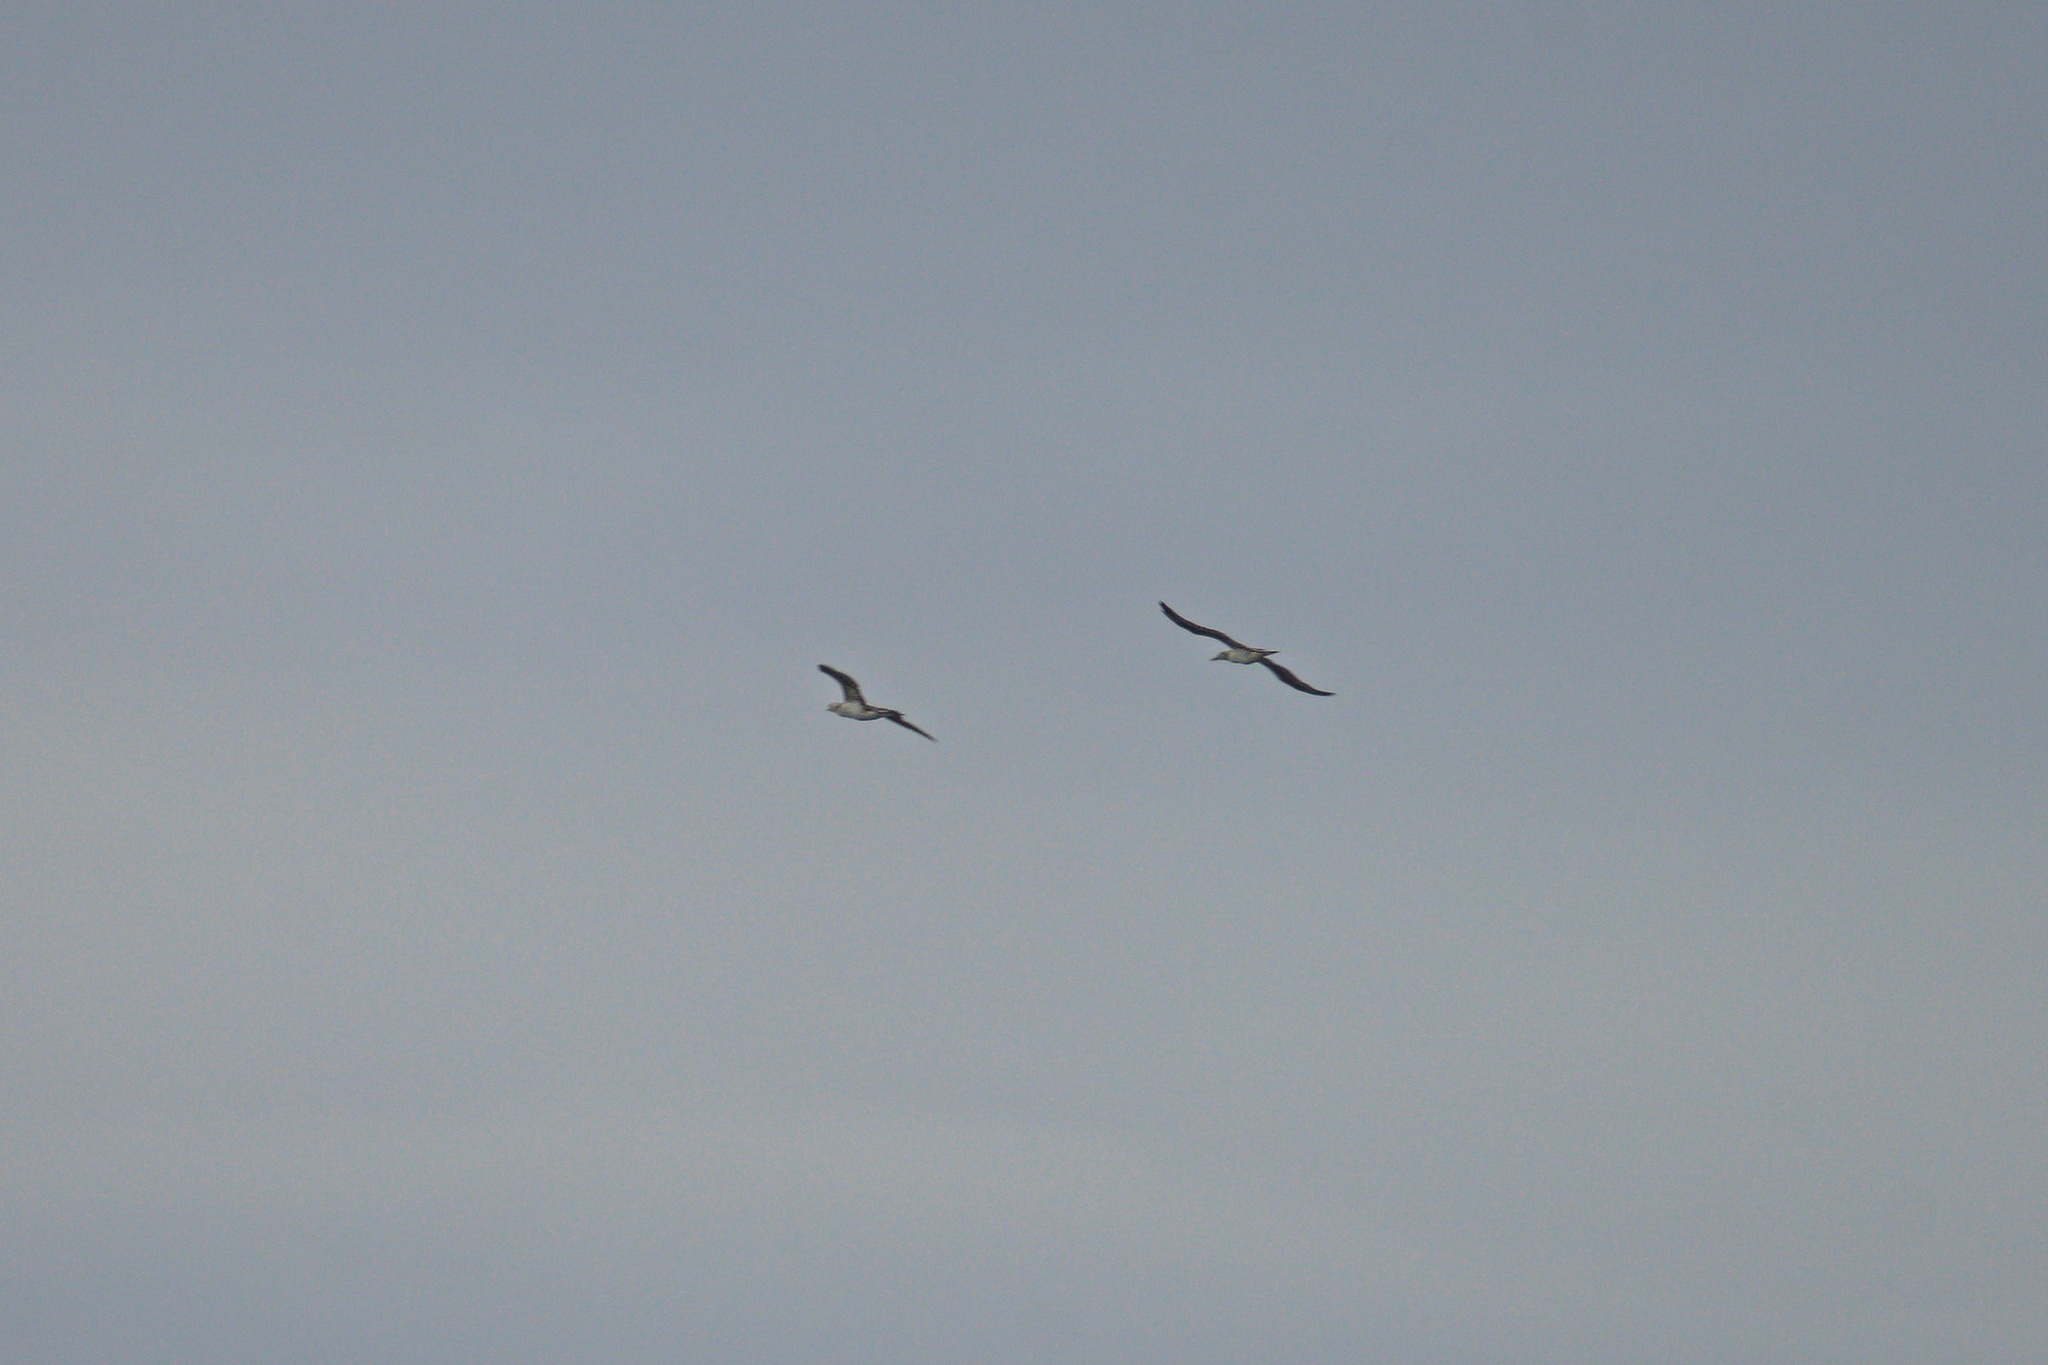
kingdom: Animalia
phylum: Chordata
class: Aves
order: Suliformes
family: Sulidae
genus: Morus
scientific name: Morus bassanus
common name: Northern gannet
